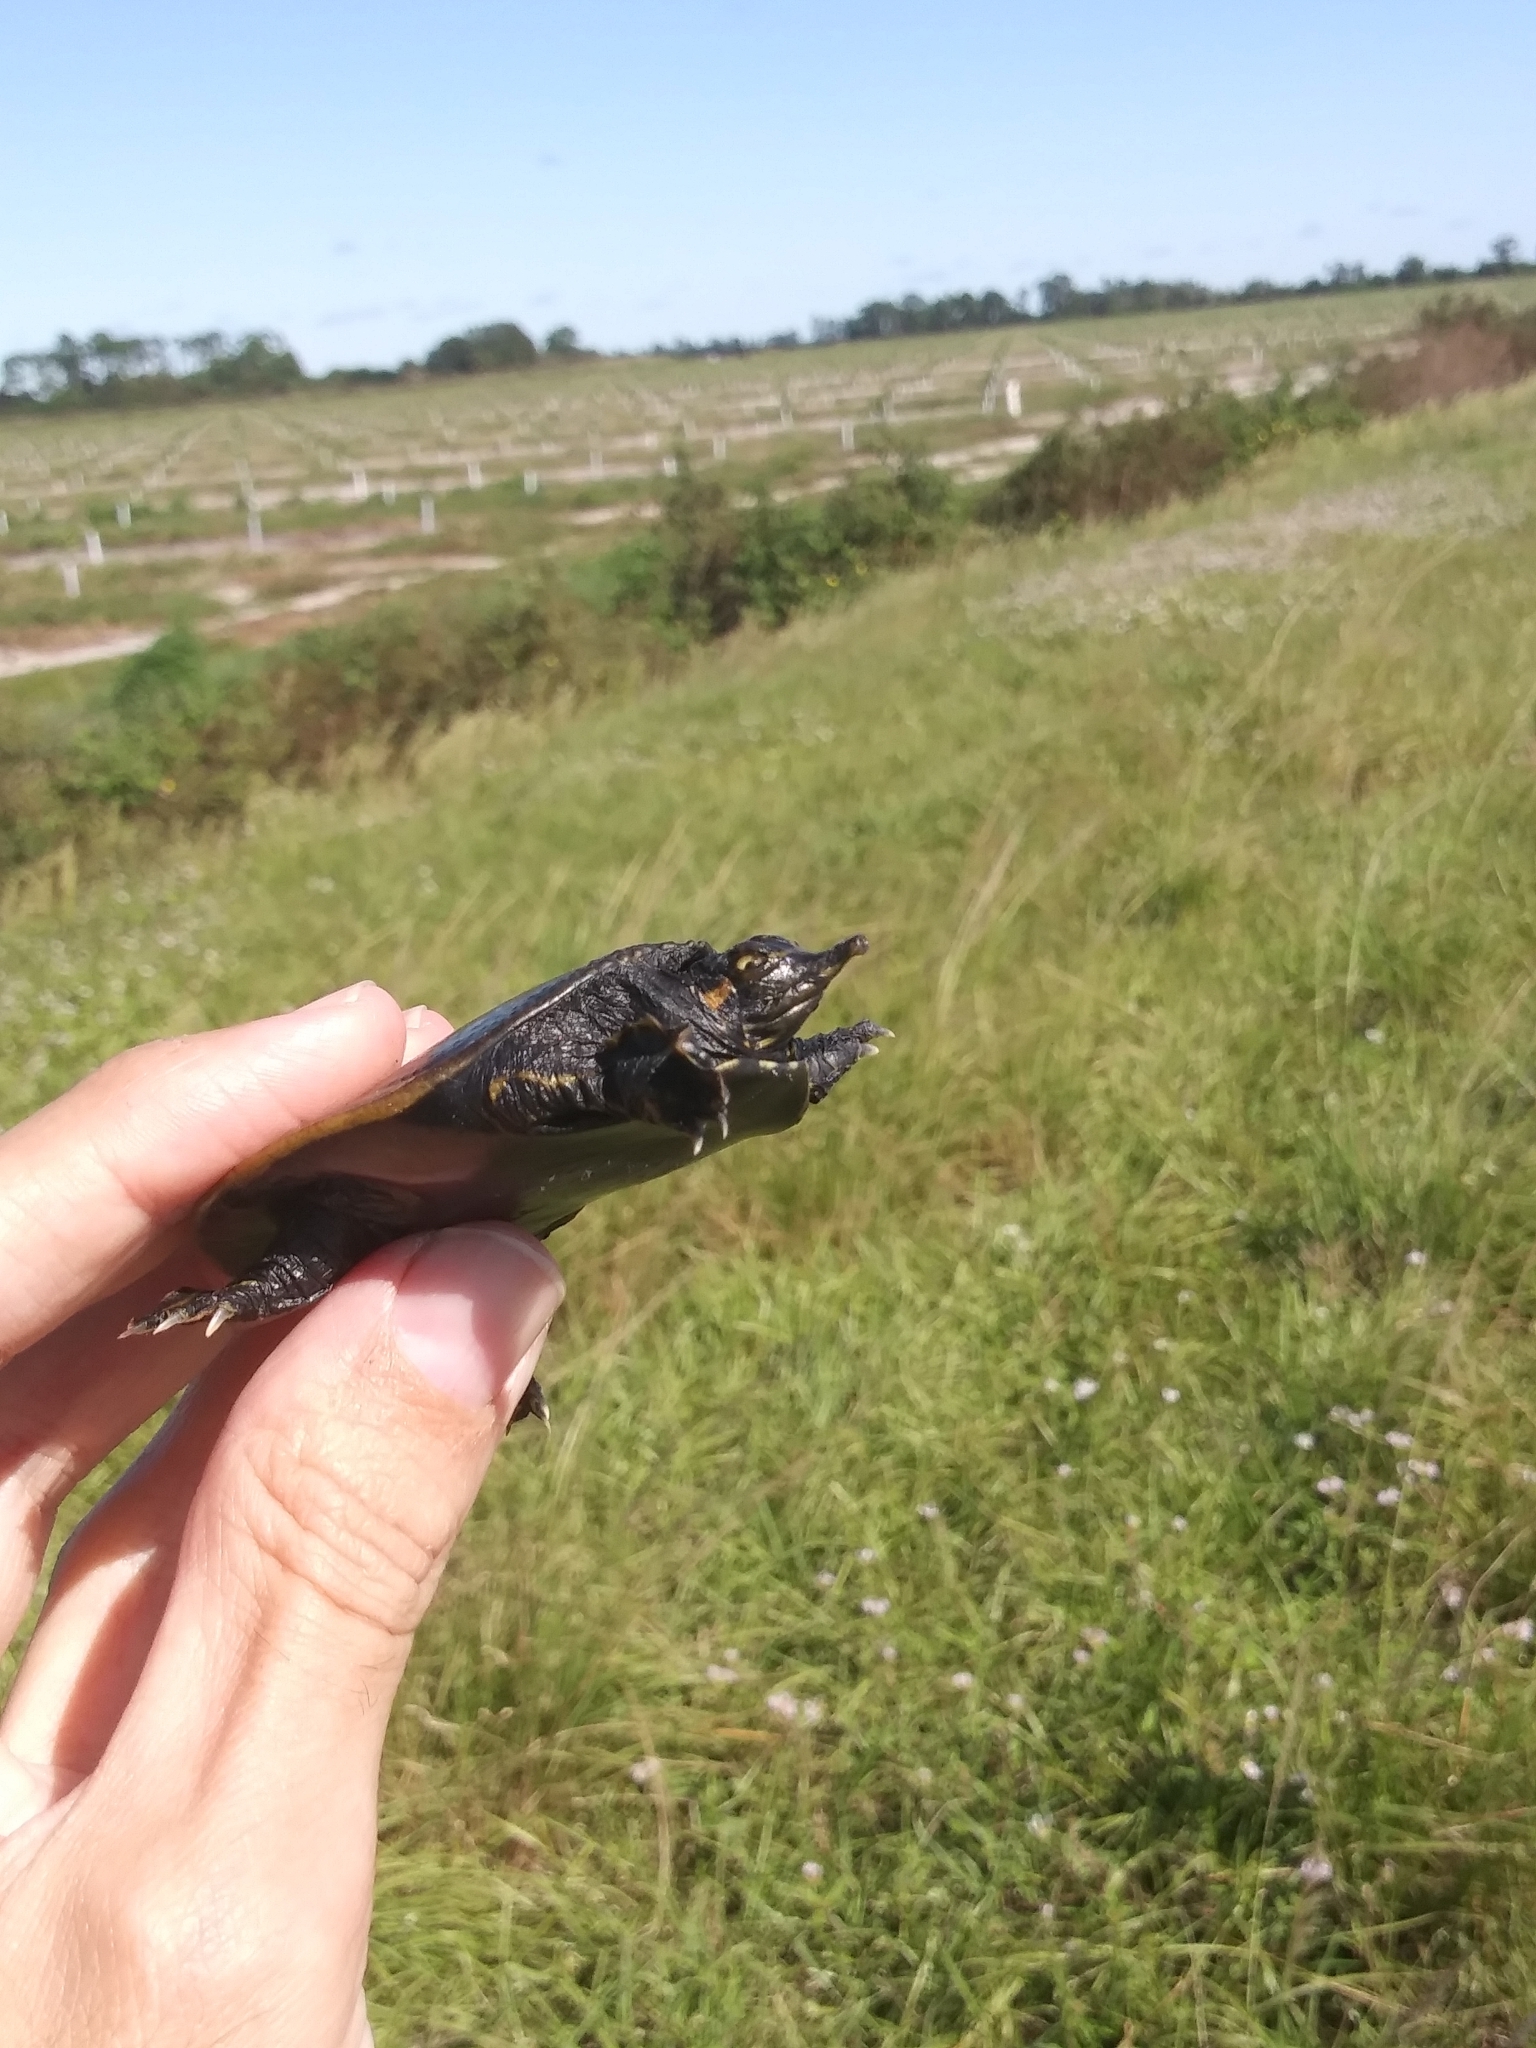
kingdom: Animalia
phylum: Chordata
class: Testudines
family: Trionychidae
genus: Apalone
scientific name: Apalone ferox
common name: Florida softshell turtle
